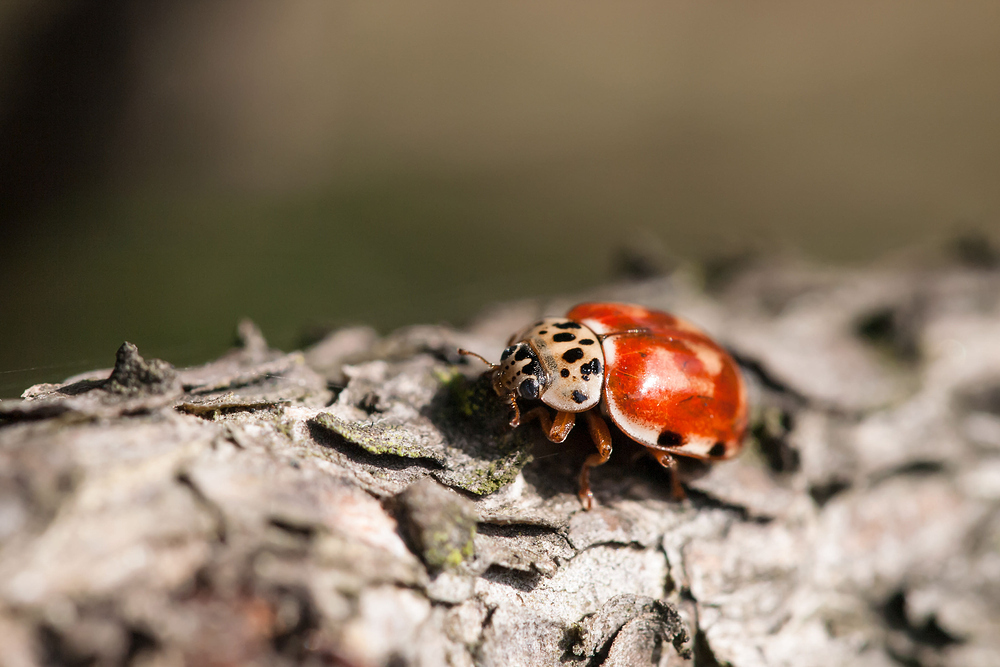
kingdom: Animalia
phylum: Arthropoda
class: Insecta
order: Coleoptera
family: Coccinellidae
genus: Harmonia
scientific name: Harmonia quadripunctata
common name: Cream-streaked ladybird
